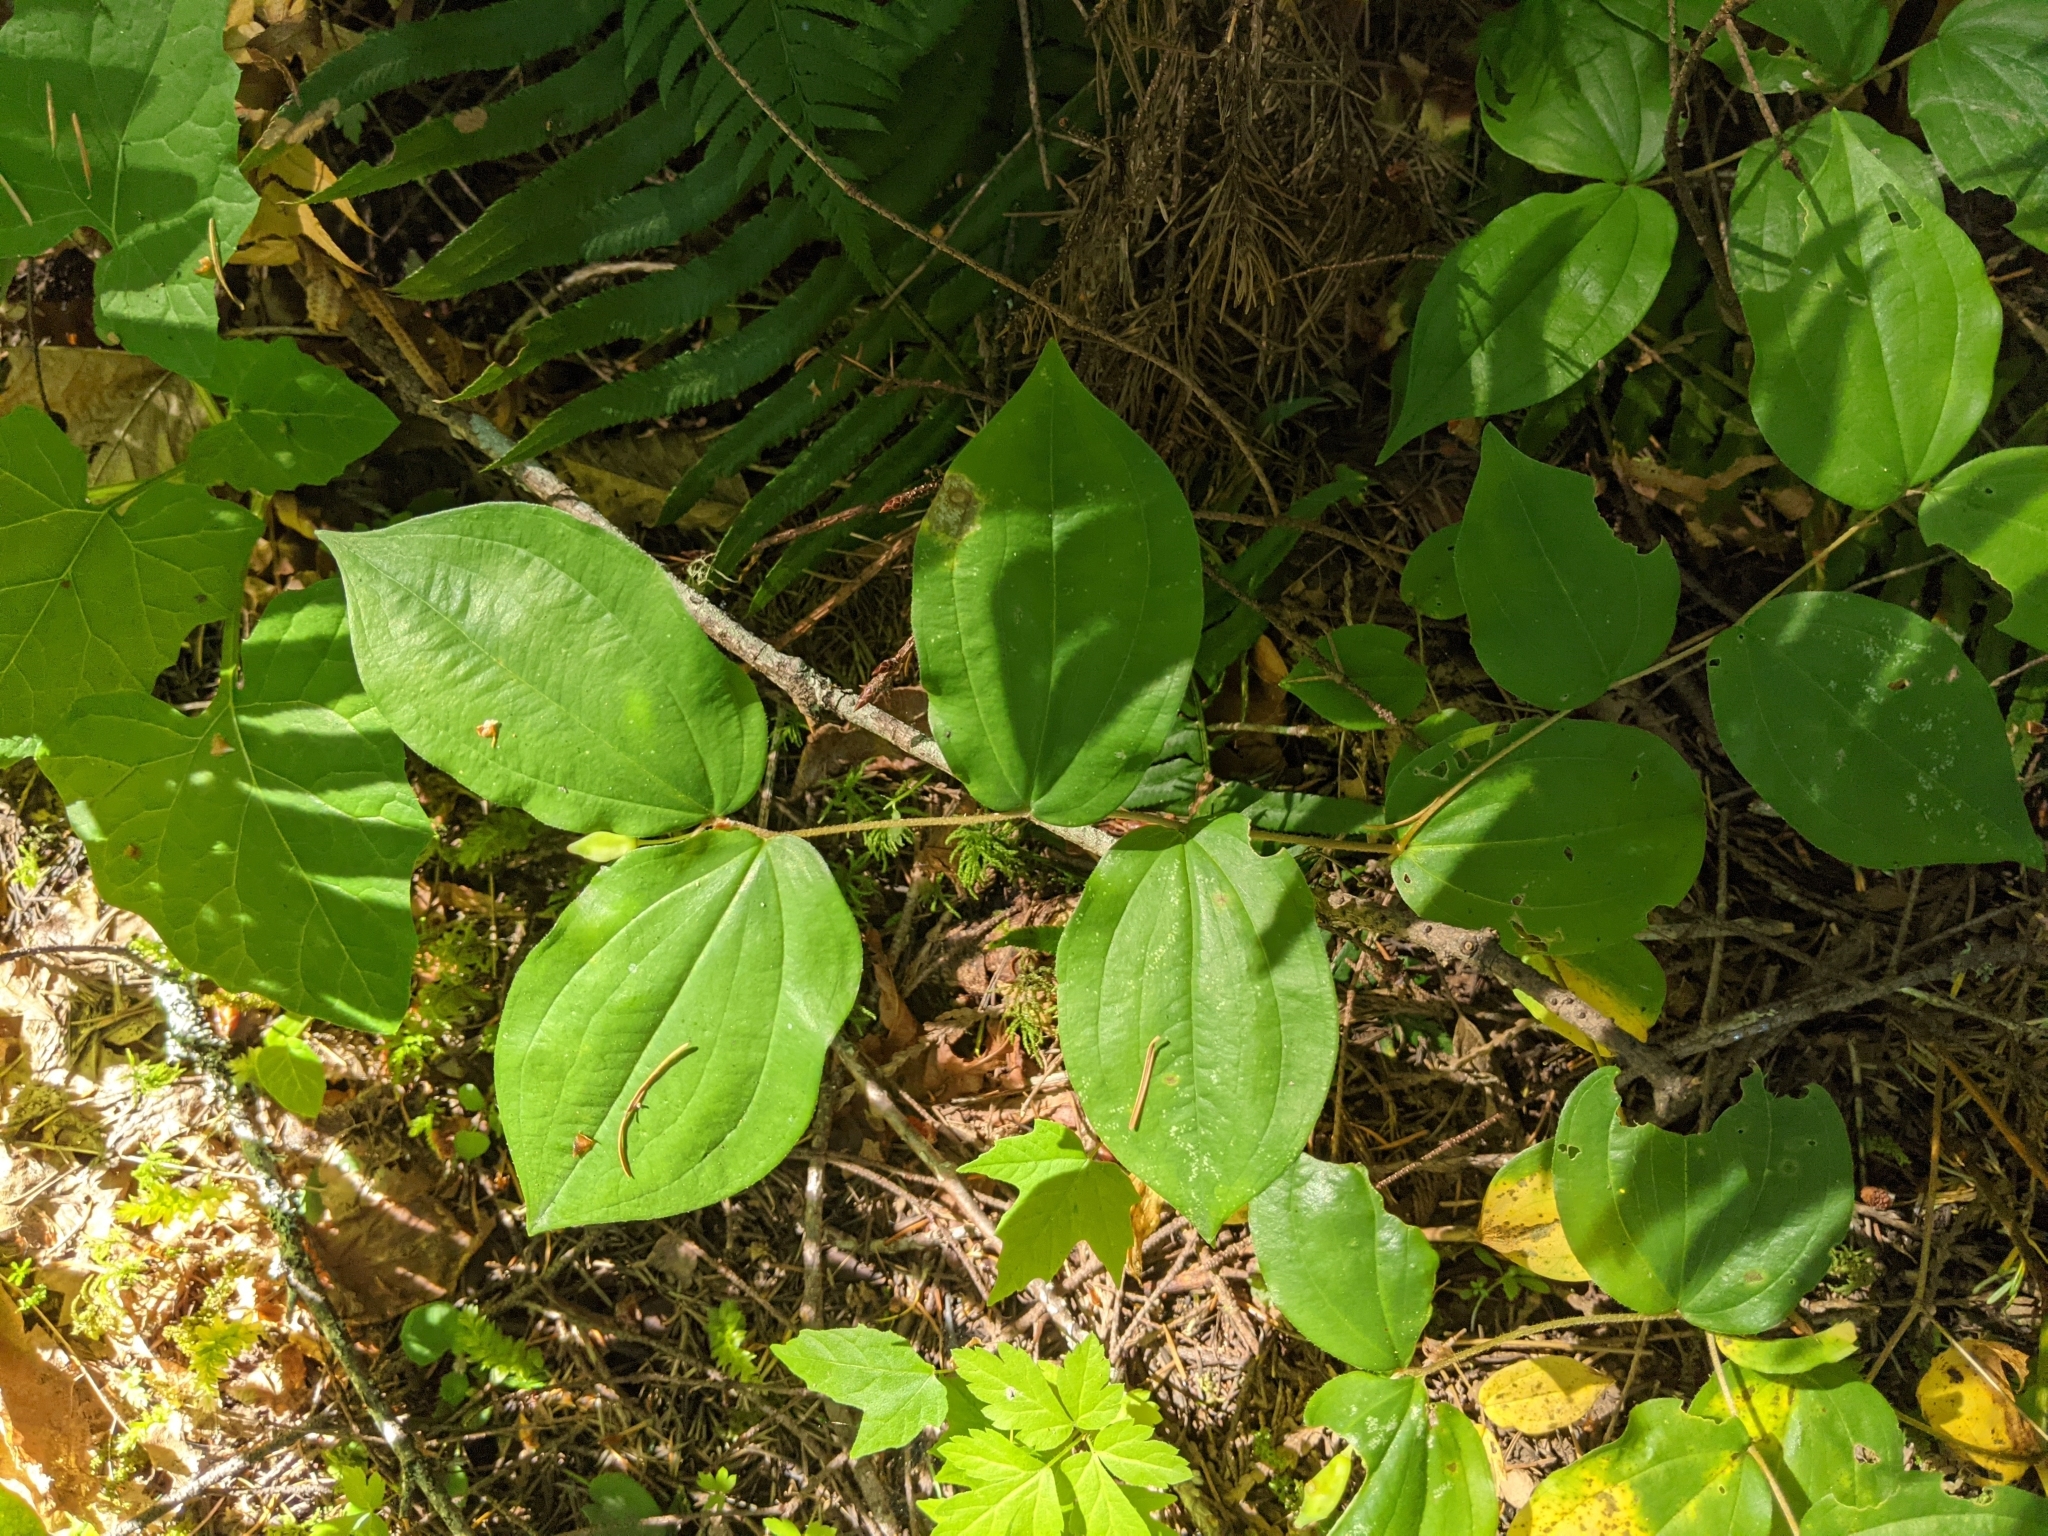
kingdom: Plantae
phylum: Tracheophyta
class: Liliopsida
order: Liliales
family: Liliaceae
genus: Prosartes
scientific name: Prosartes smithii
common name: Fairy-lantern
